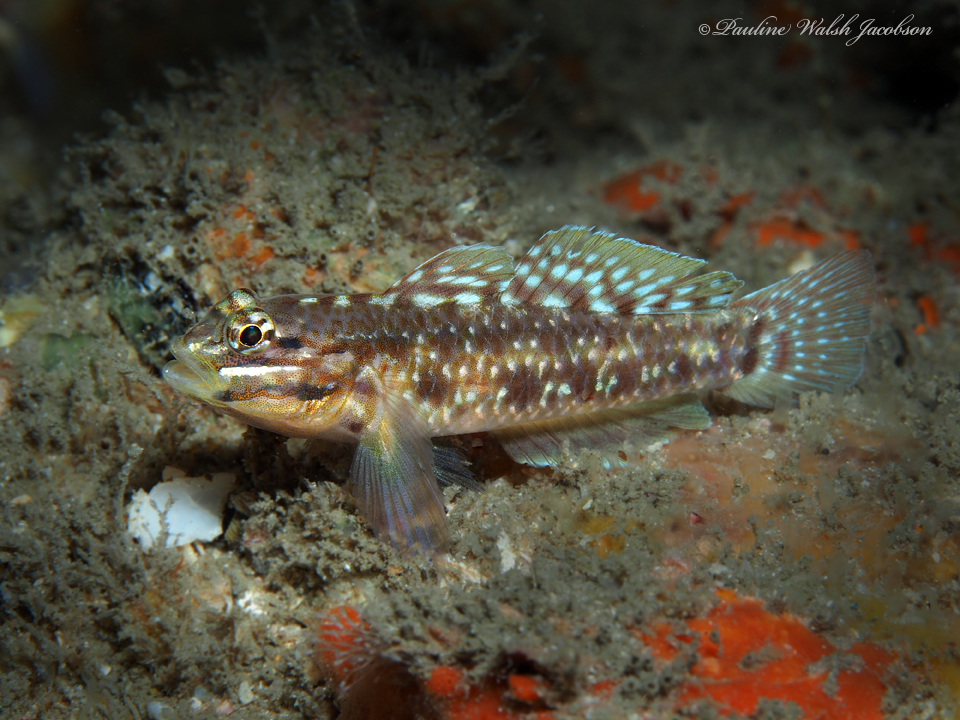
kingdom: Animalia
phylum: Chordata
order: Perciformes
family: Gobiidae
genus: Coryphopterus
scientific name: Coryphopterus dicrus
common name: Colon goby
